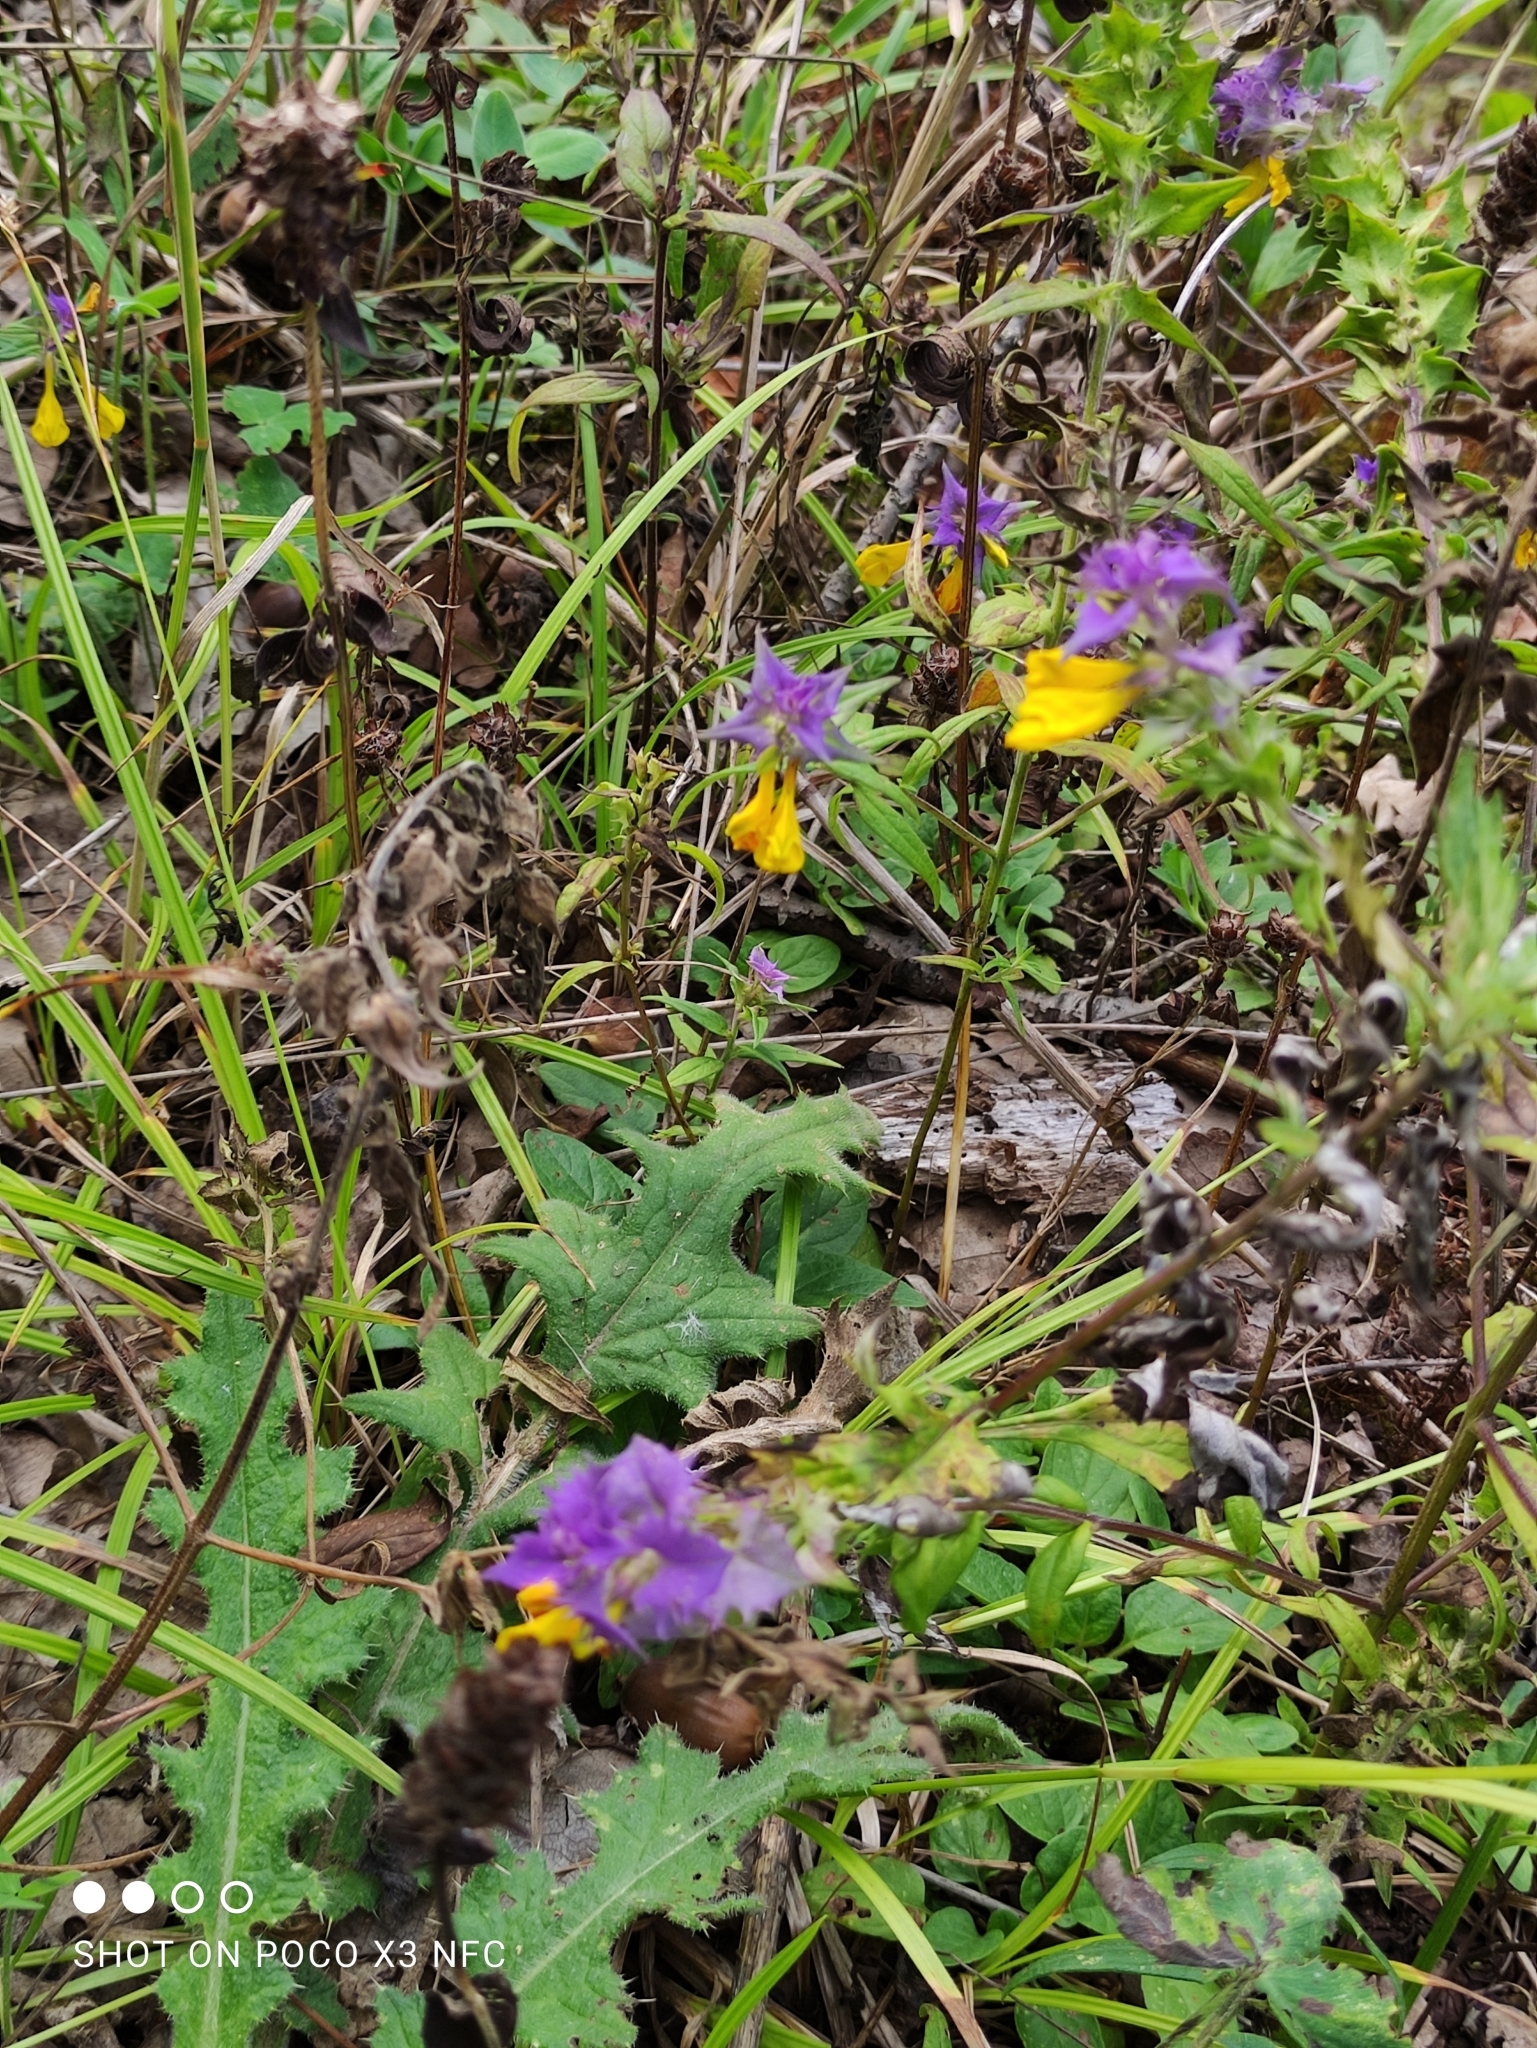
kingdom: Plantae
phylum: Tracheophyta
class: Magnoliopsida
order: Lamiales
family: Orobanchaceae
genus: Melampyrum
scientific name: Melampyrum nemorosum
